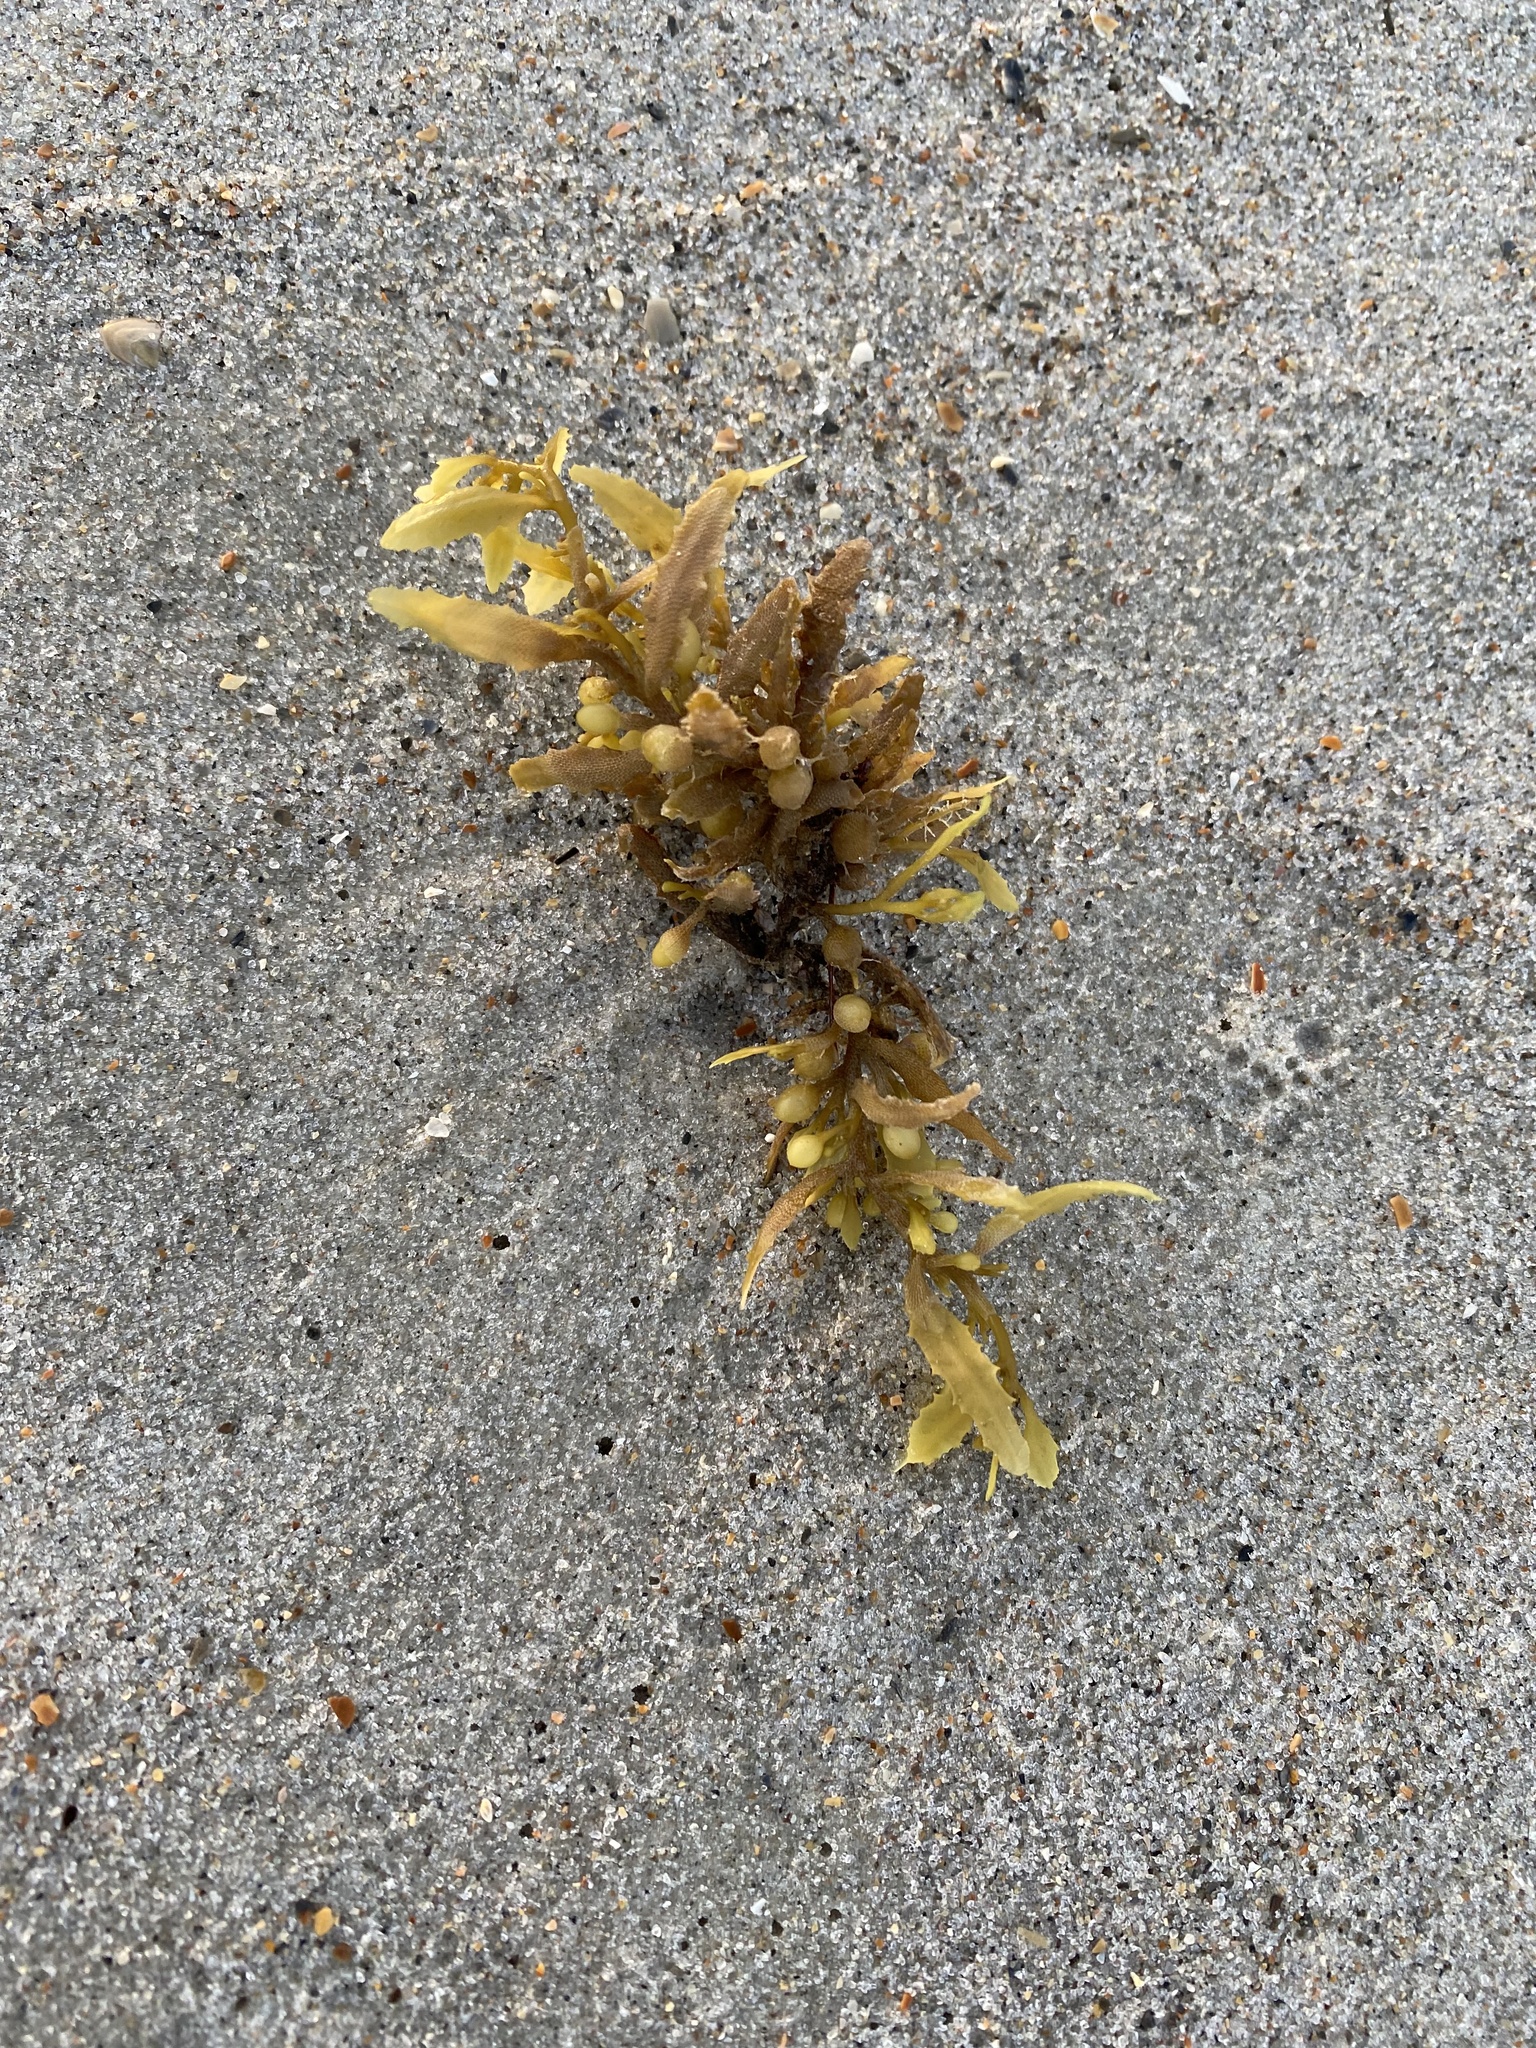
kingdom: Chromista
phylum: Ochrophyta
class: Phaeophyceae
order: Fucales
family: Sargassaceae
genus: Sargassum
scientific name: Sargassum fluitans
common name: Sargassum seaweed
